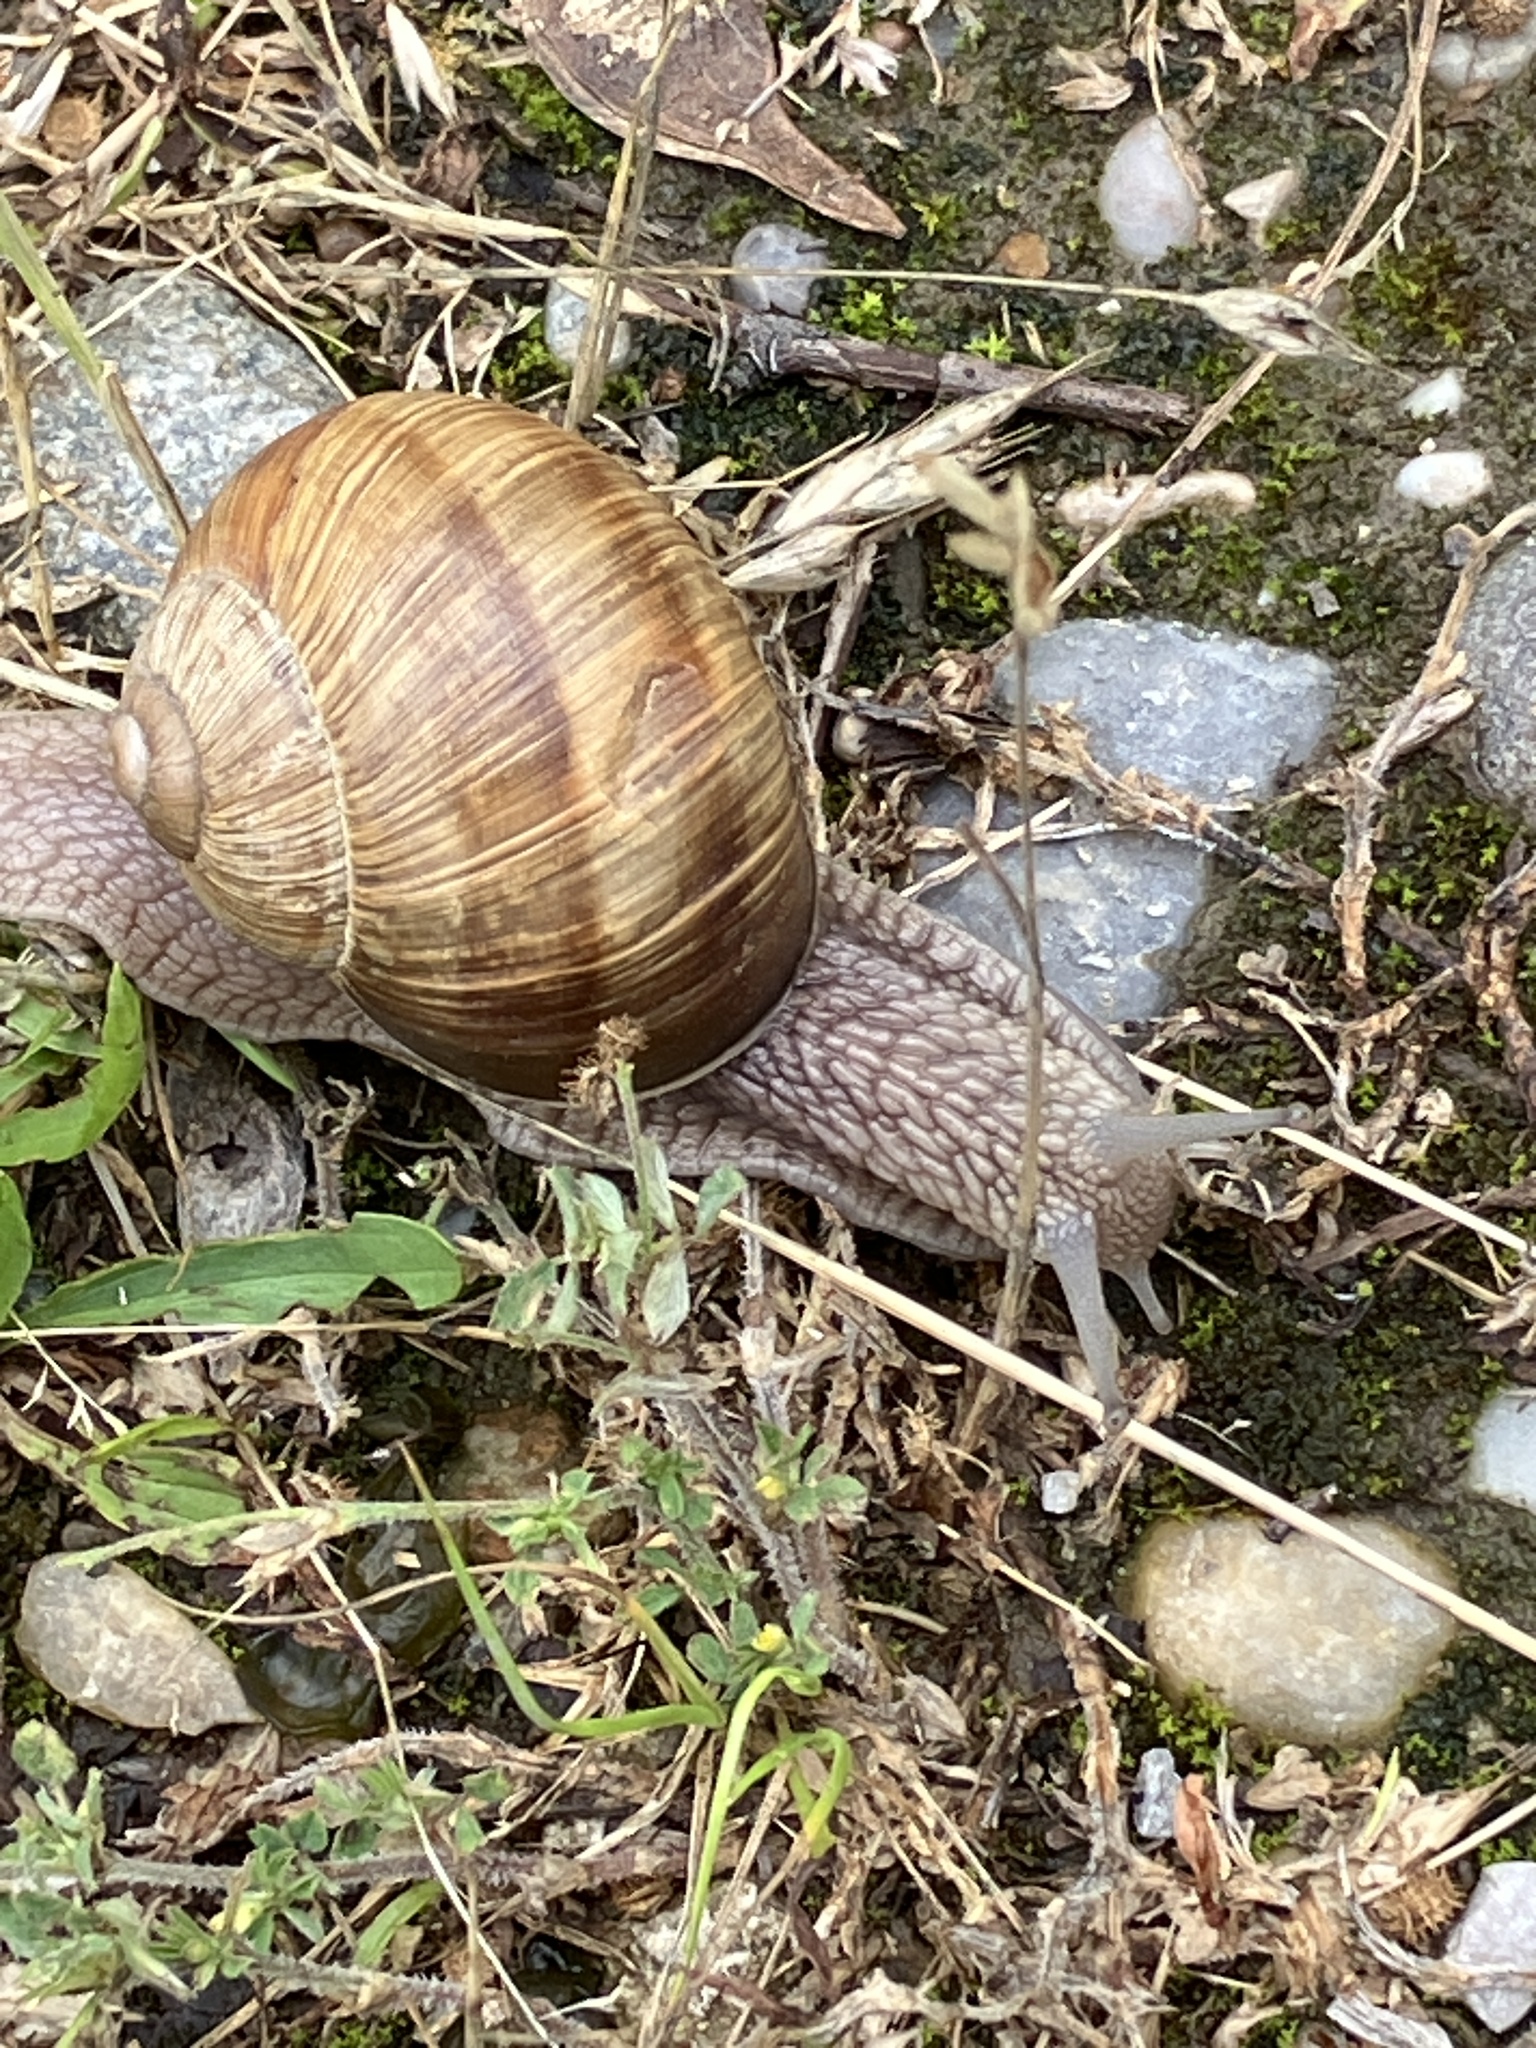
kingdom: Animalia
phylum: Mollusca
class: Gastropoda
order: Stylommatophora
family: Helicidae
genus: Helix
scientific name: Helix pomatia
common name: Roman snail
